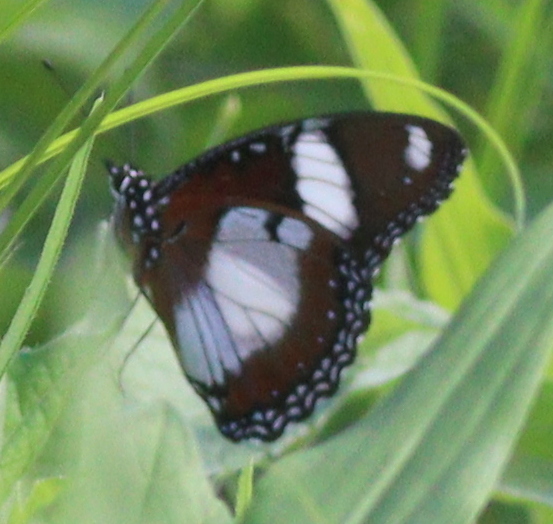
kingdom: Animalia
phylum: Arthropoda
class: Insecta
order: Lepidoptera
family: Nymphalidae
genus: Hypolimnas
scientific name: Hypolimnas misippus
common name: False plain tiger
